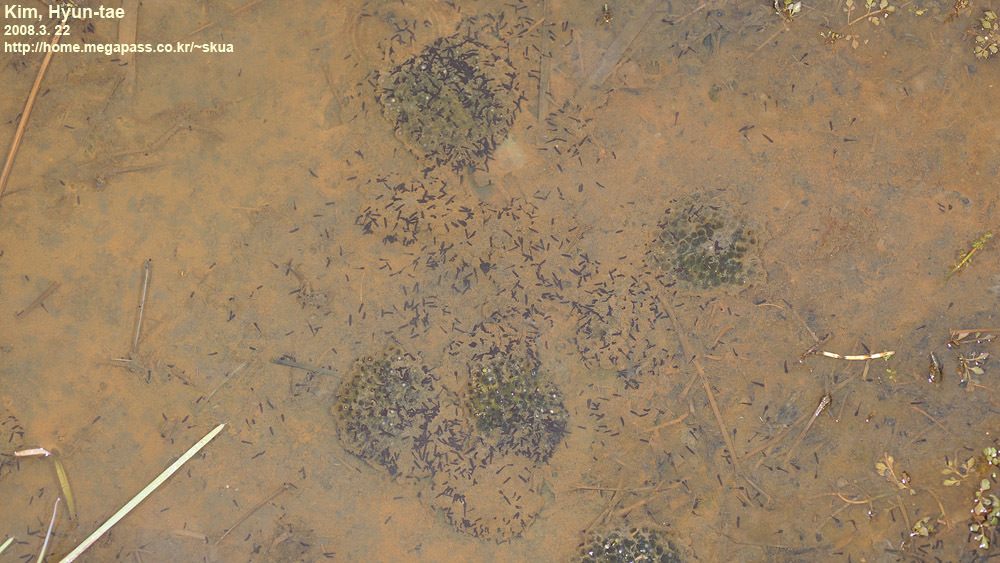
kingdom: Animalia
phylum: Chordata
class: Amphibia
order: Anura
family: Ranidae
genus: Rana
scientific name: Rana coreana
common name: Korean brown frog
